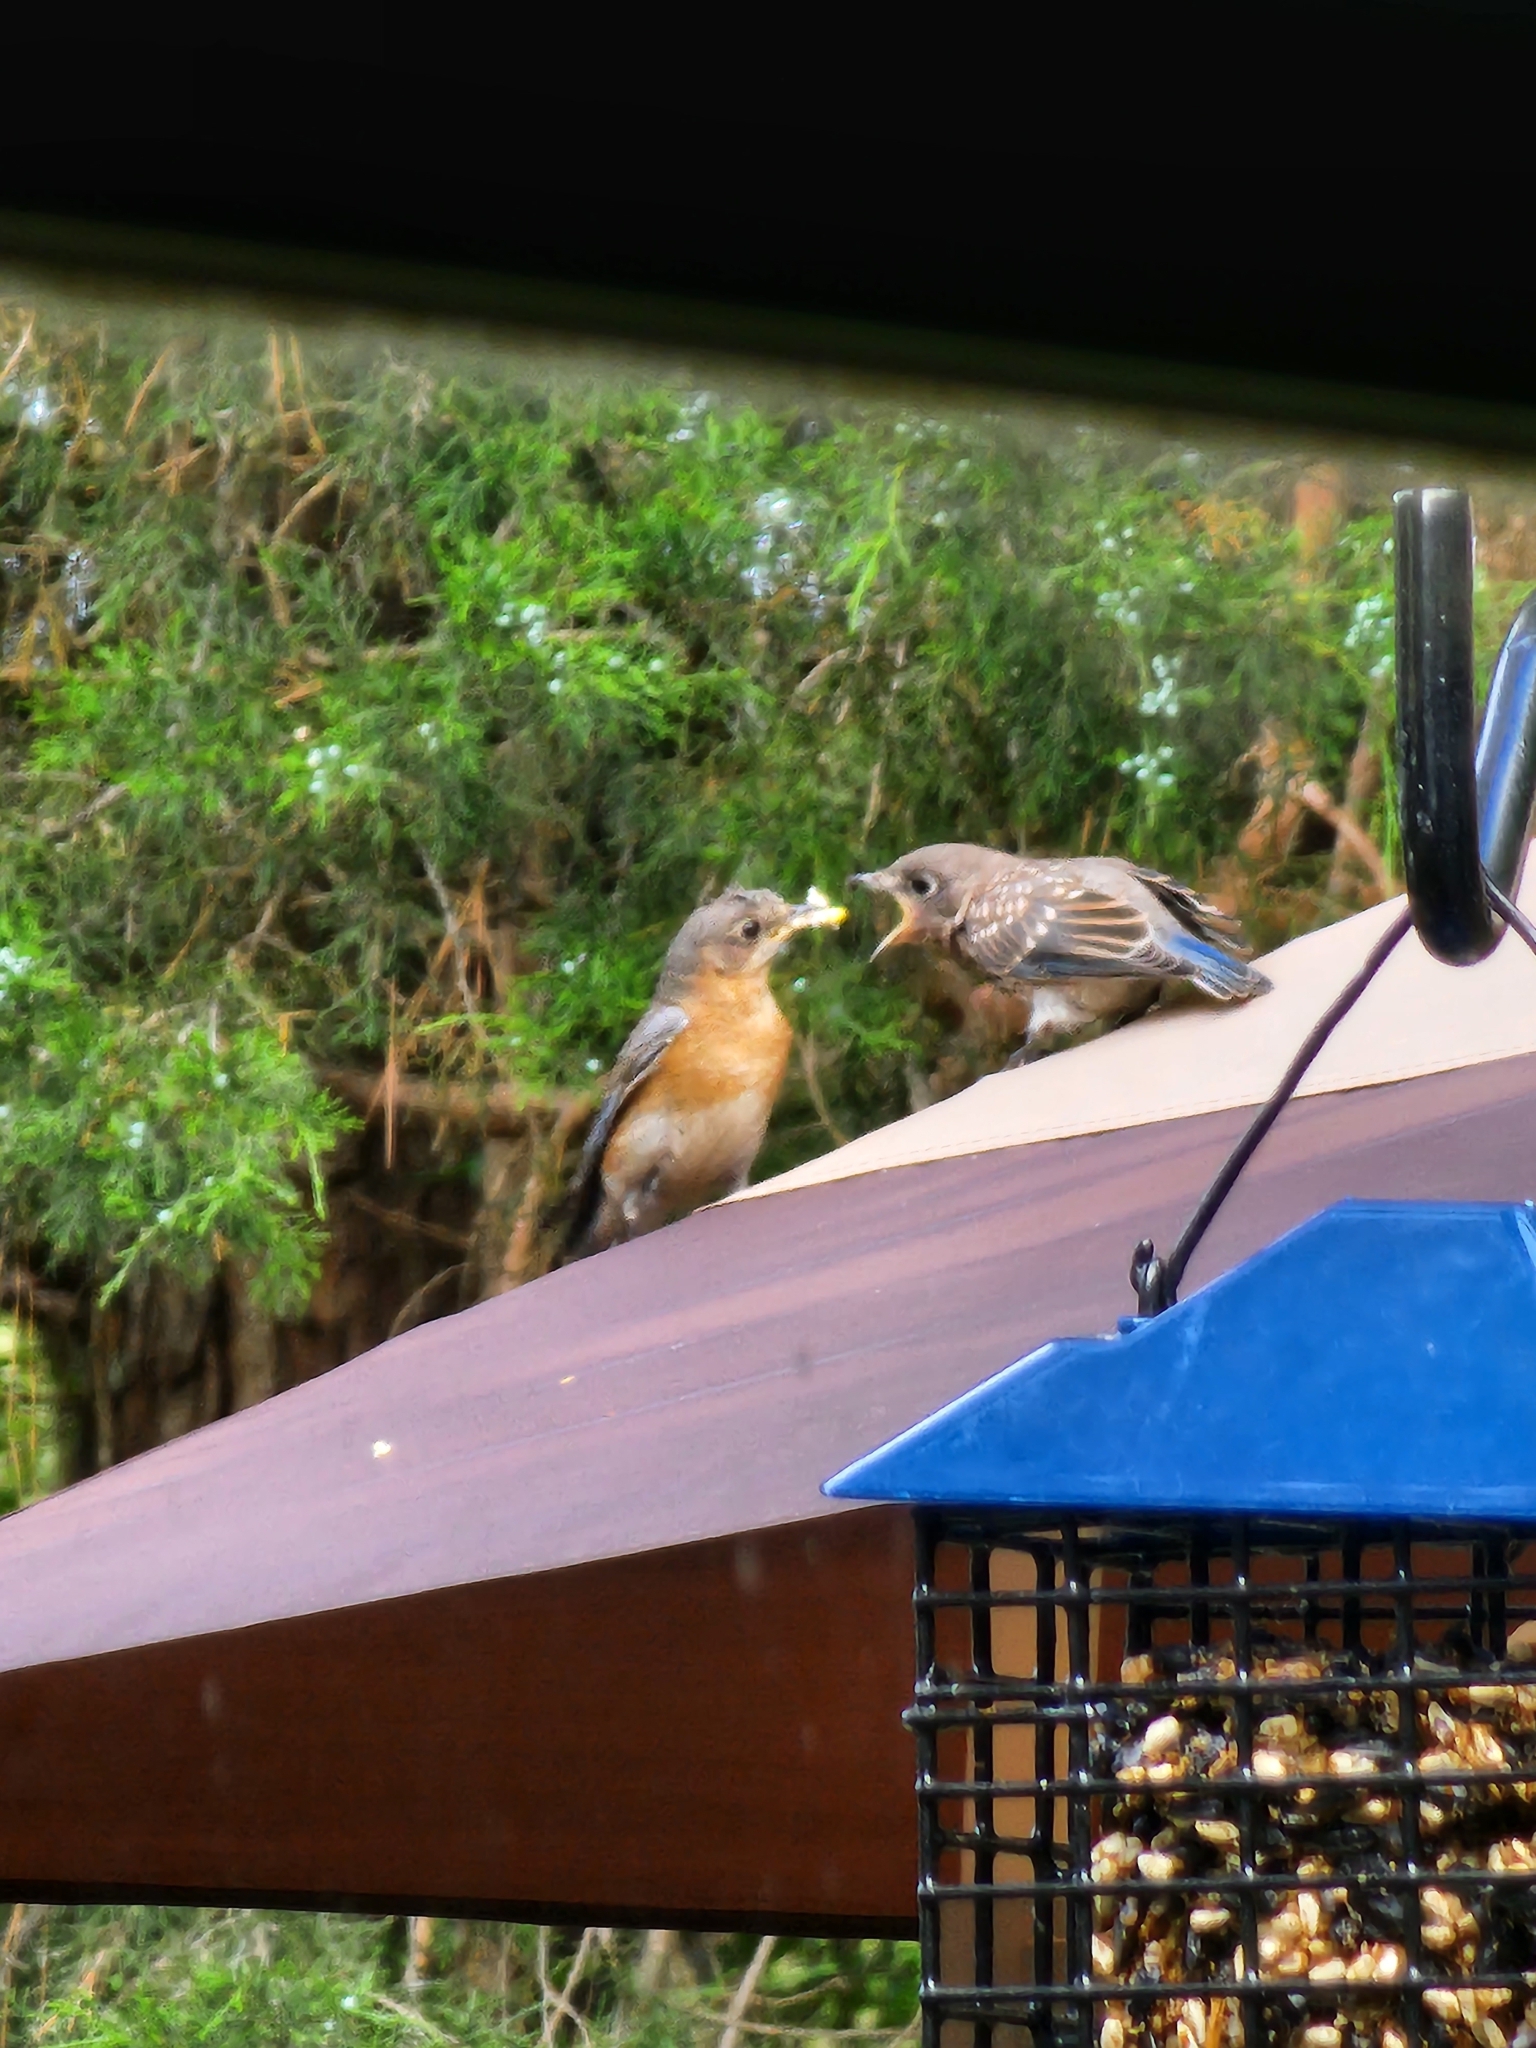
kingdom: Animalia
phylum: Chordata
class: Aves
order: Passeriformes
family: Turdidae
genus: Sialia
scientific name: Sialia sialis
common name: Eastern bluebird
